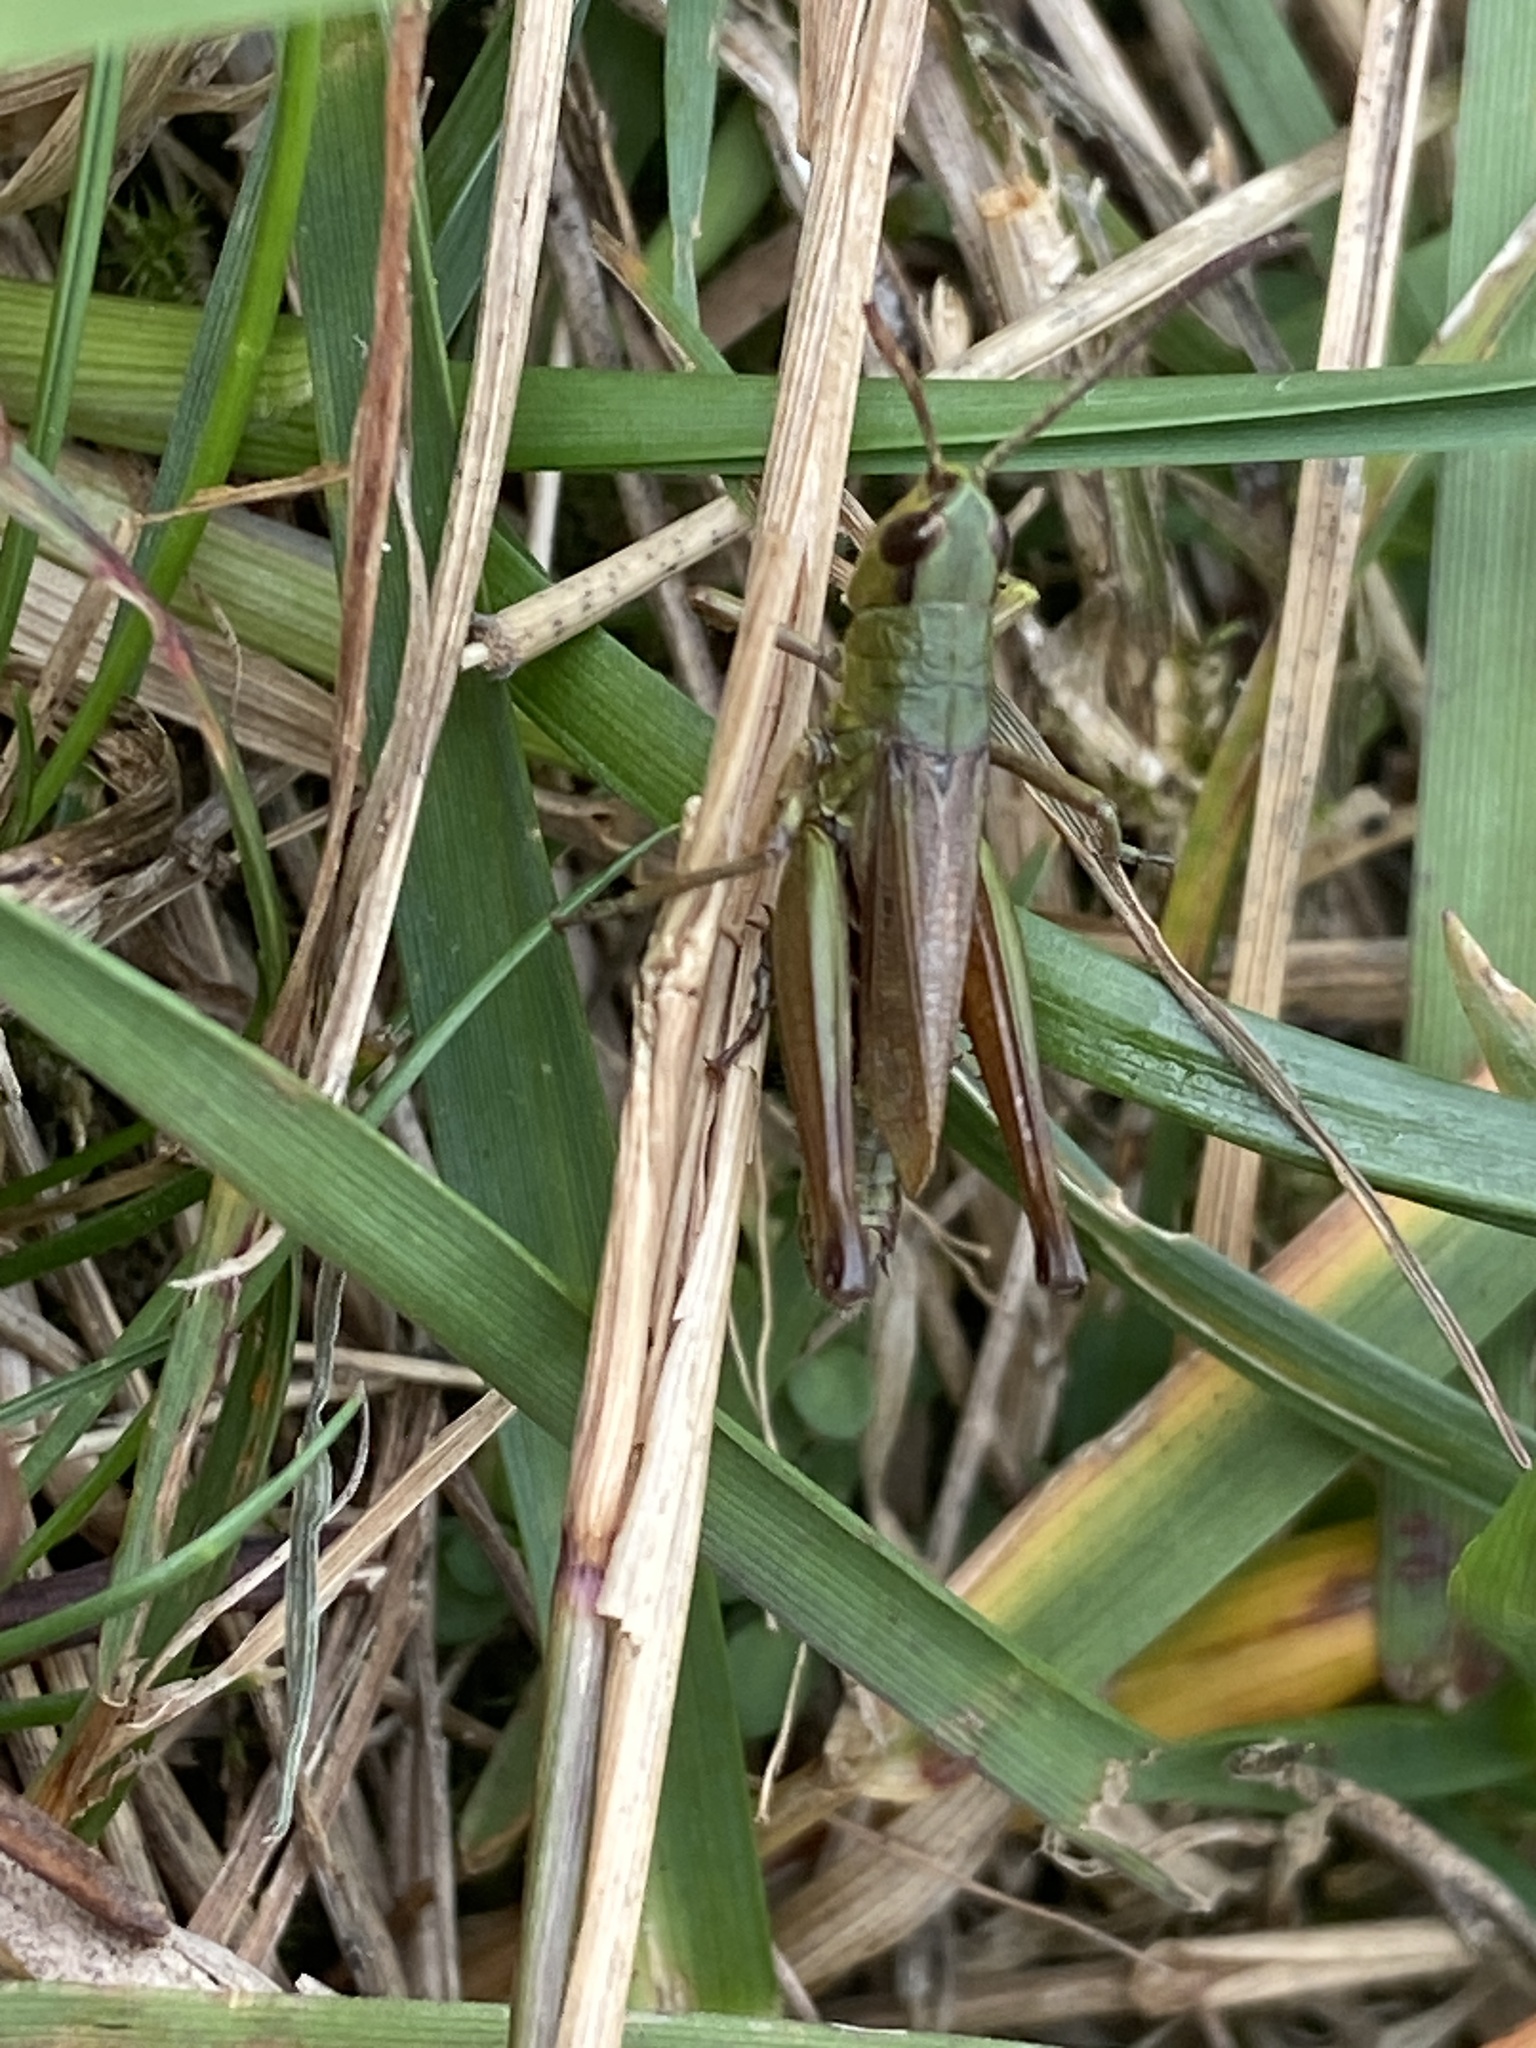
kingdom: Animalia
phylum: Arthropoda
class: Insecta
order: Orthoptera
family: Acrididae
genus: Pseudochorthippus
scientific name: Pseudochorthippus parallelus
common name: Meadow grasshopper
